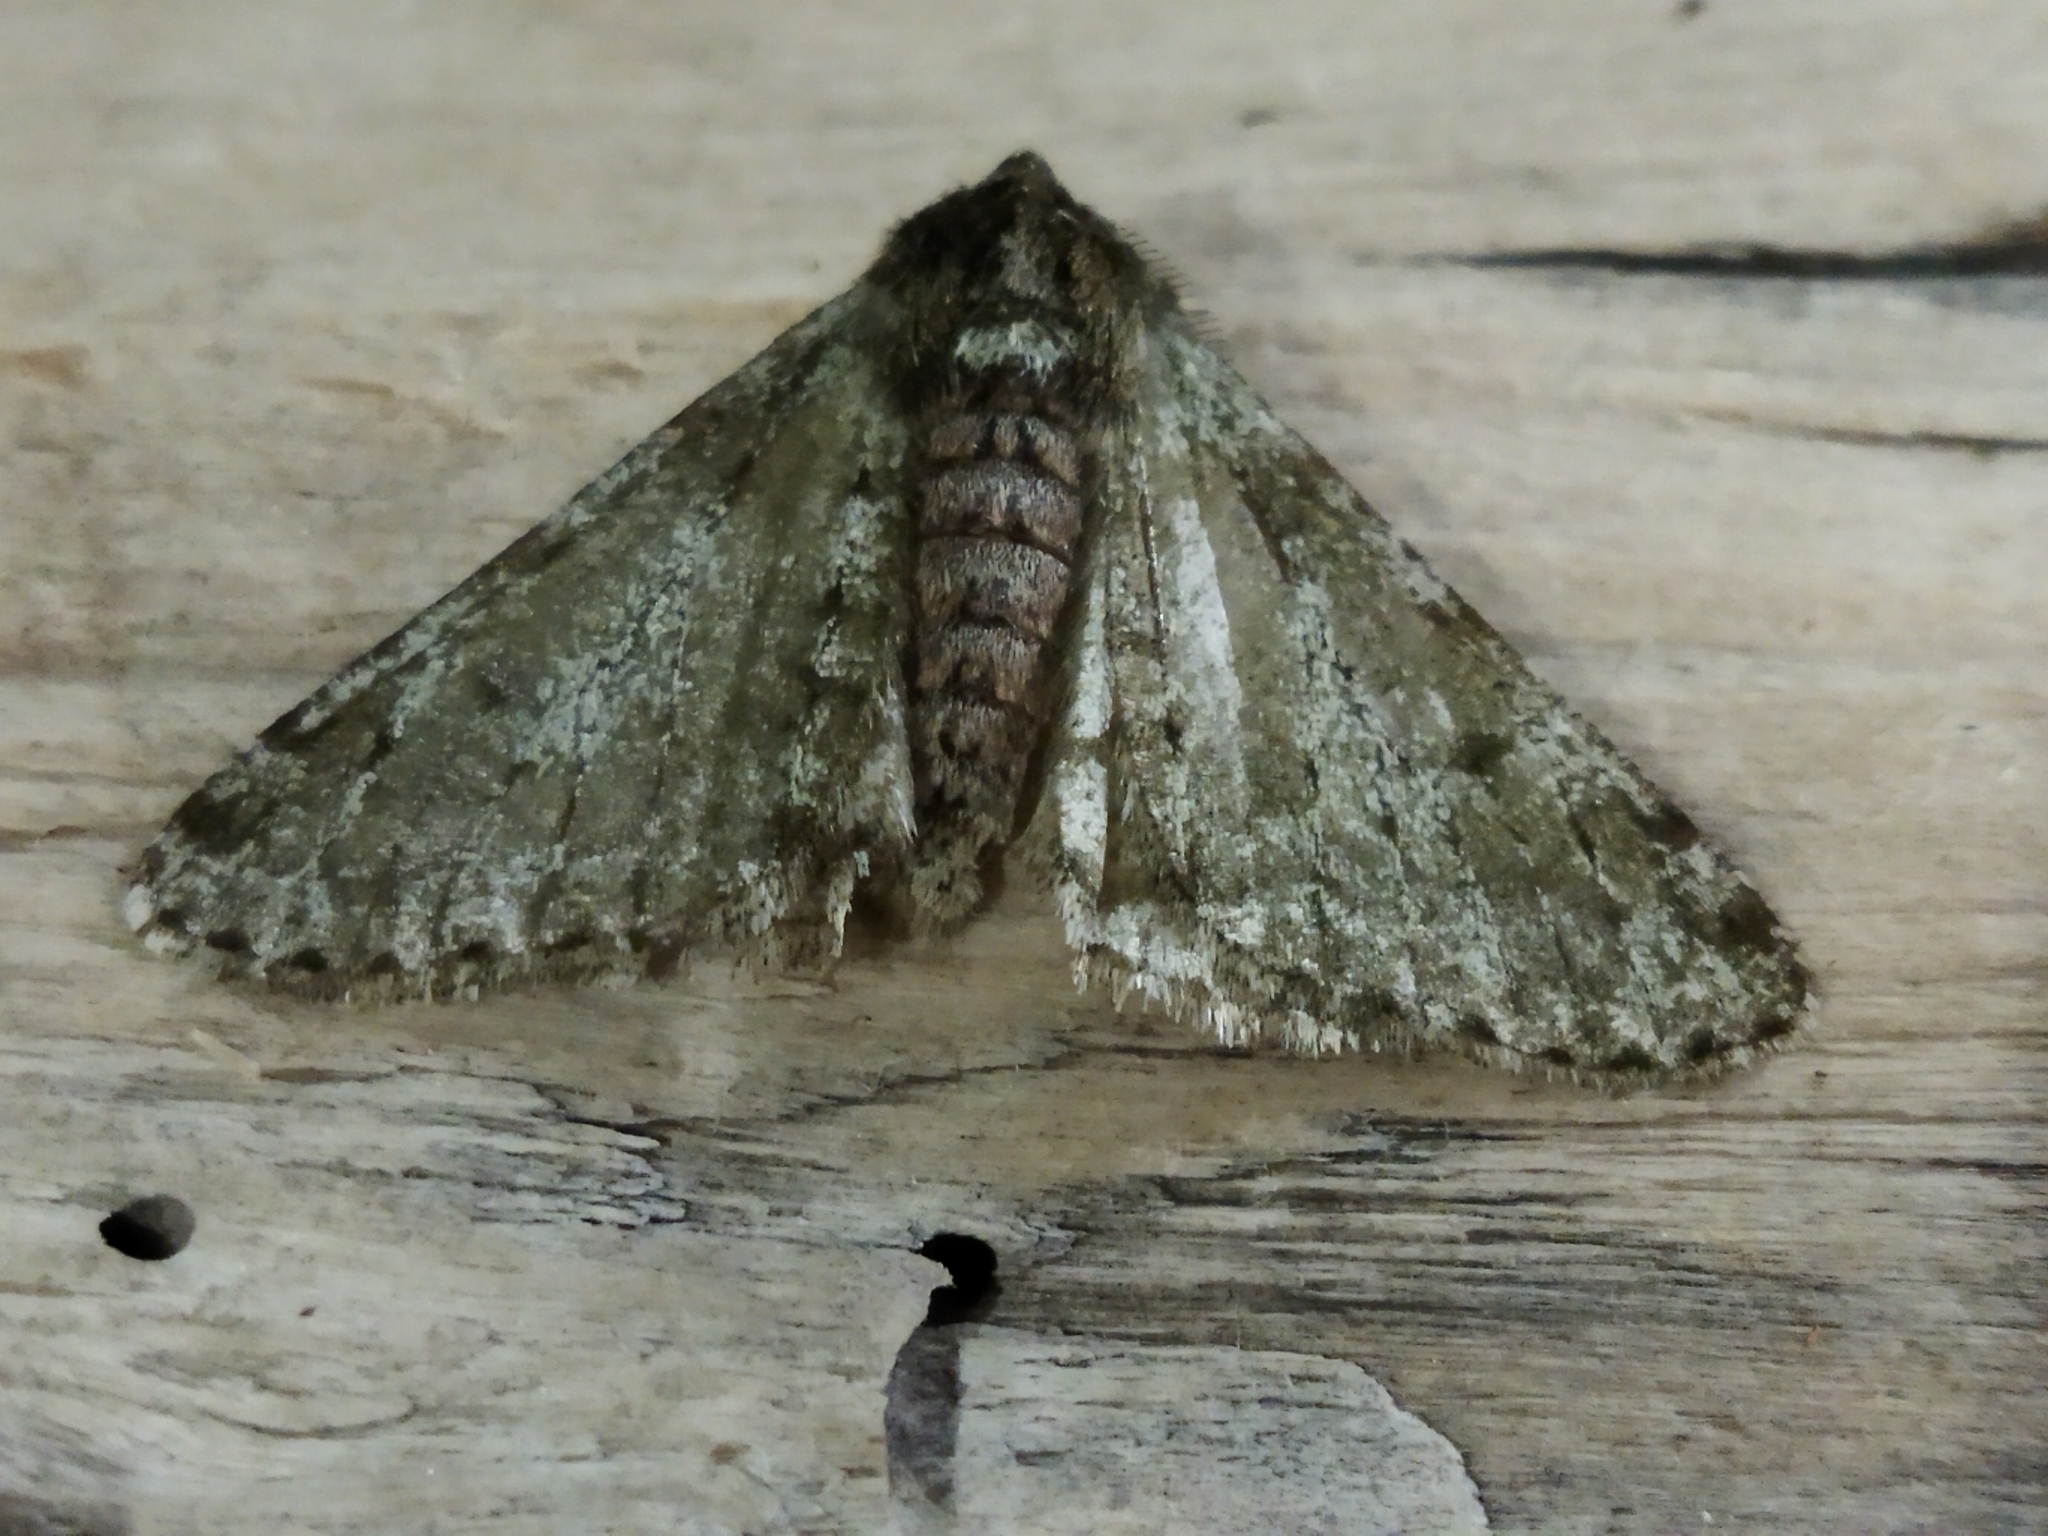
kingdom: Animalia
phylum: Arthropoda
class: Insecta
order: Lepidoptera
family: Geometridae
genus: Phigalia
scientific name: Phigalia pilosaria
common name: Pale brindled beauty
